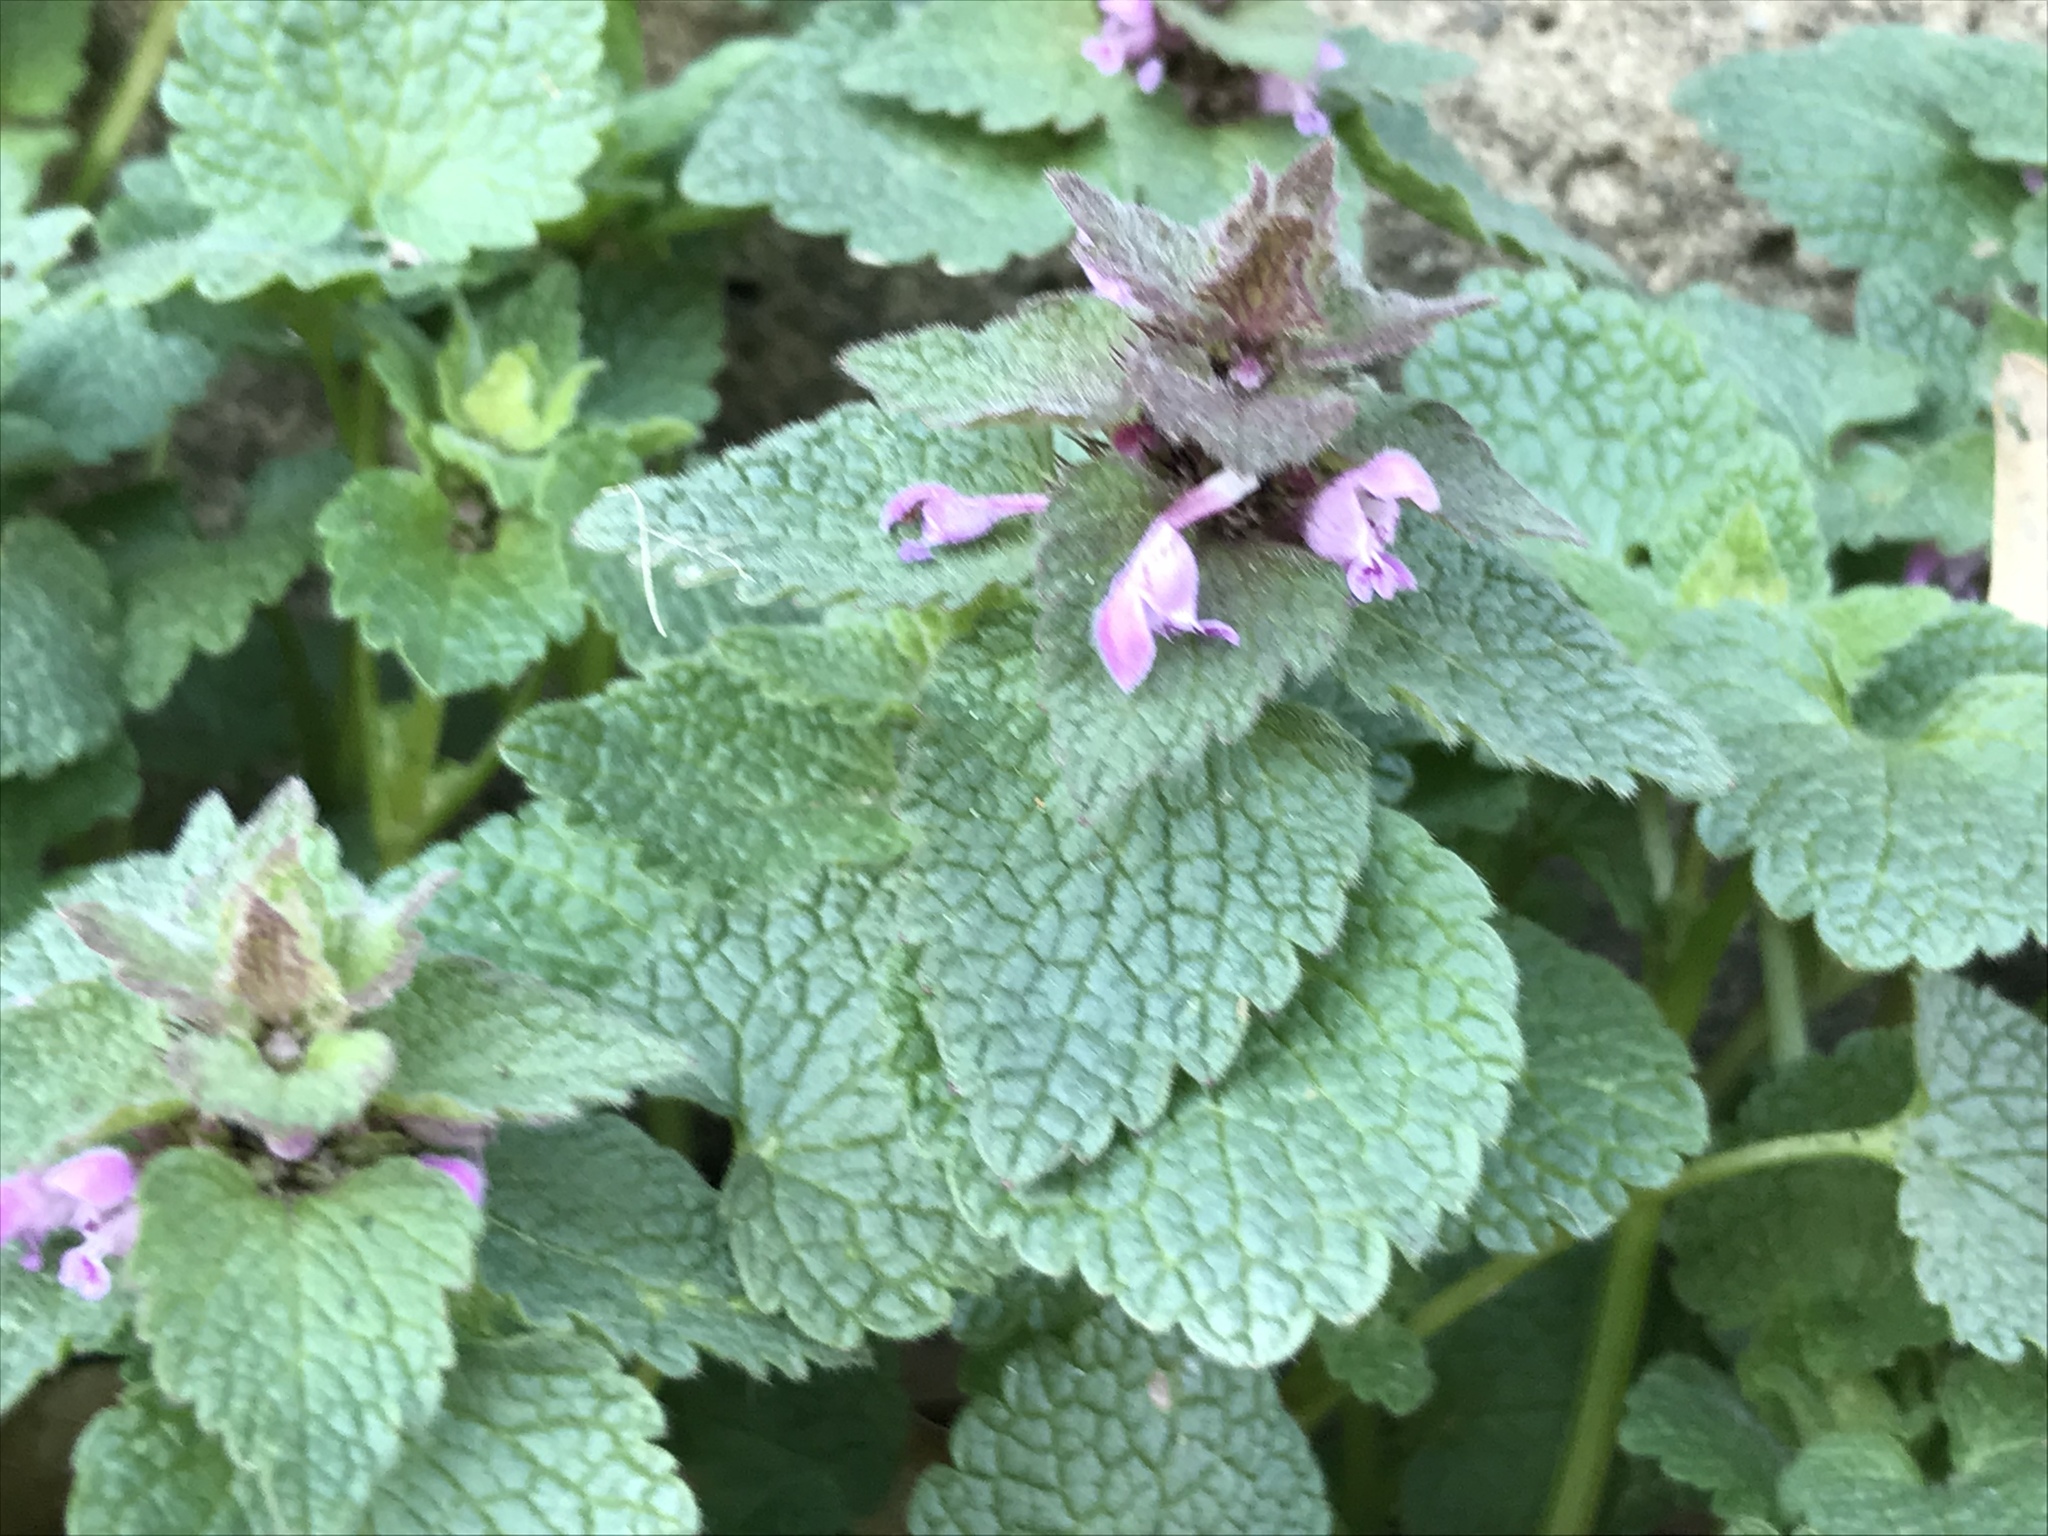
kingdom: Plantae
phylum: Tracheophyta
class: Magnoliopsida
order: Lamiales
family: Lamiaceae
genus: Lamium
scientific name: Lamium purpureum
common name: Red dead-nettle
